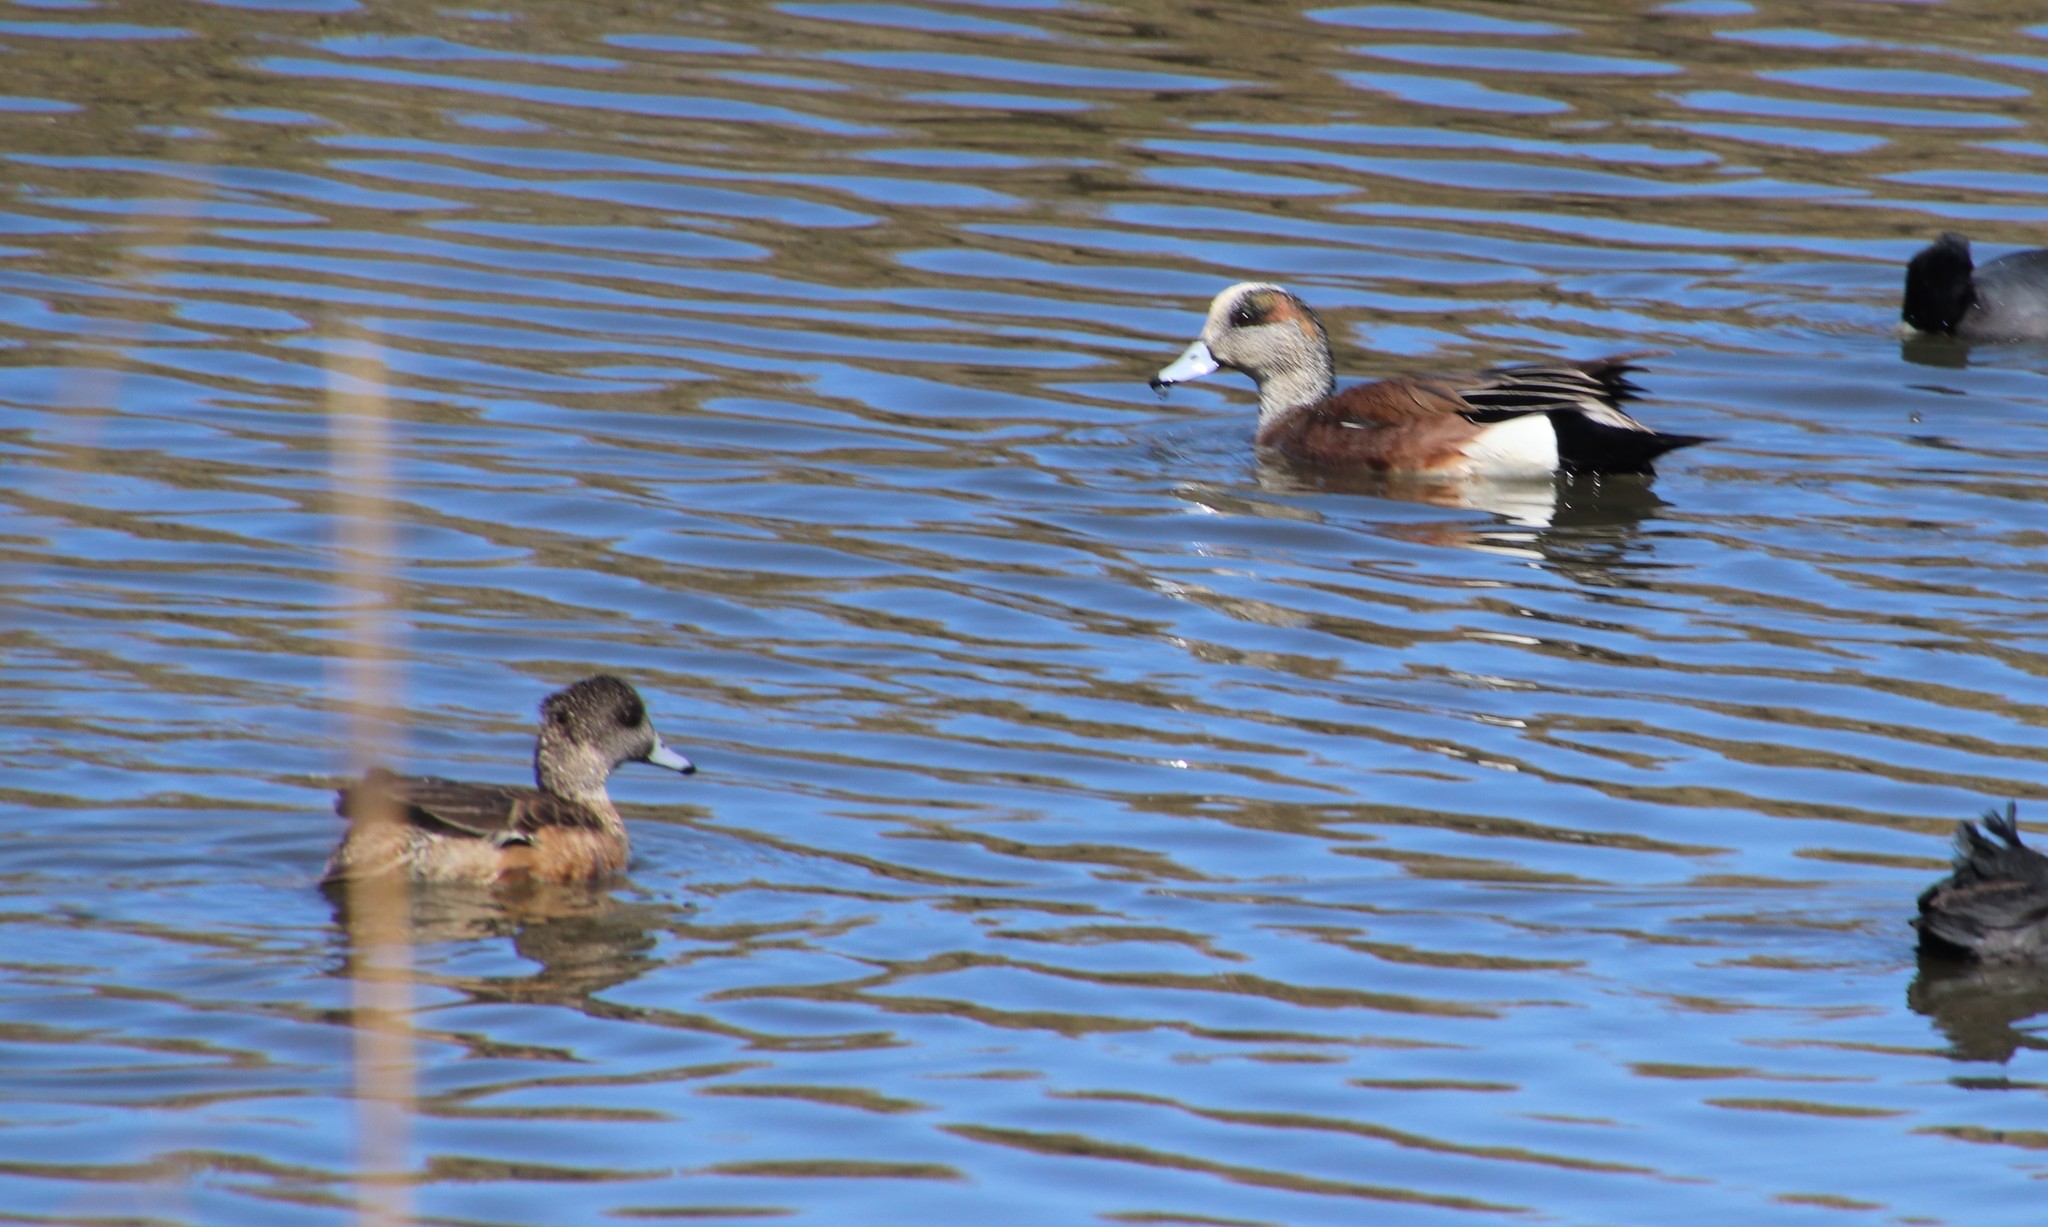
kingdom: Animalia
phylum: Chordata
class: Aves
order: Anseriformes
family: Anatidae
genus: Mareca
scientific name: Mareca americana
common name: American wigeon
